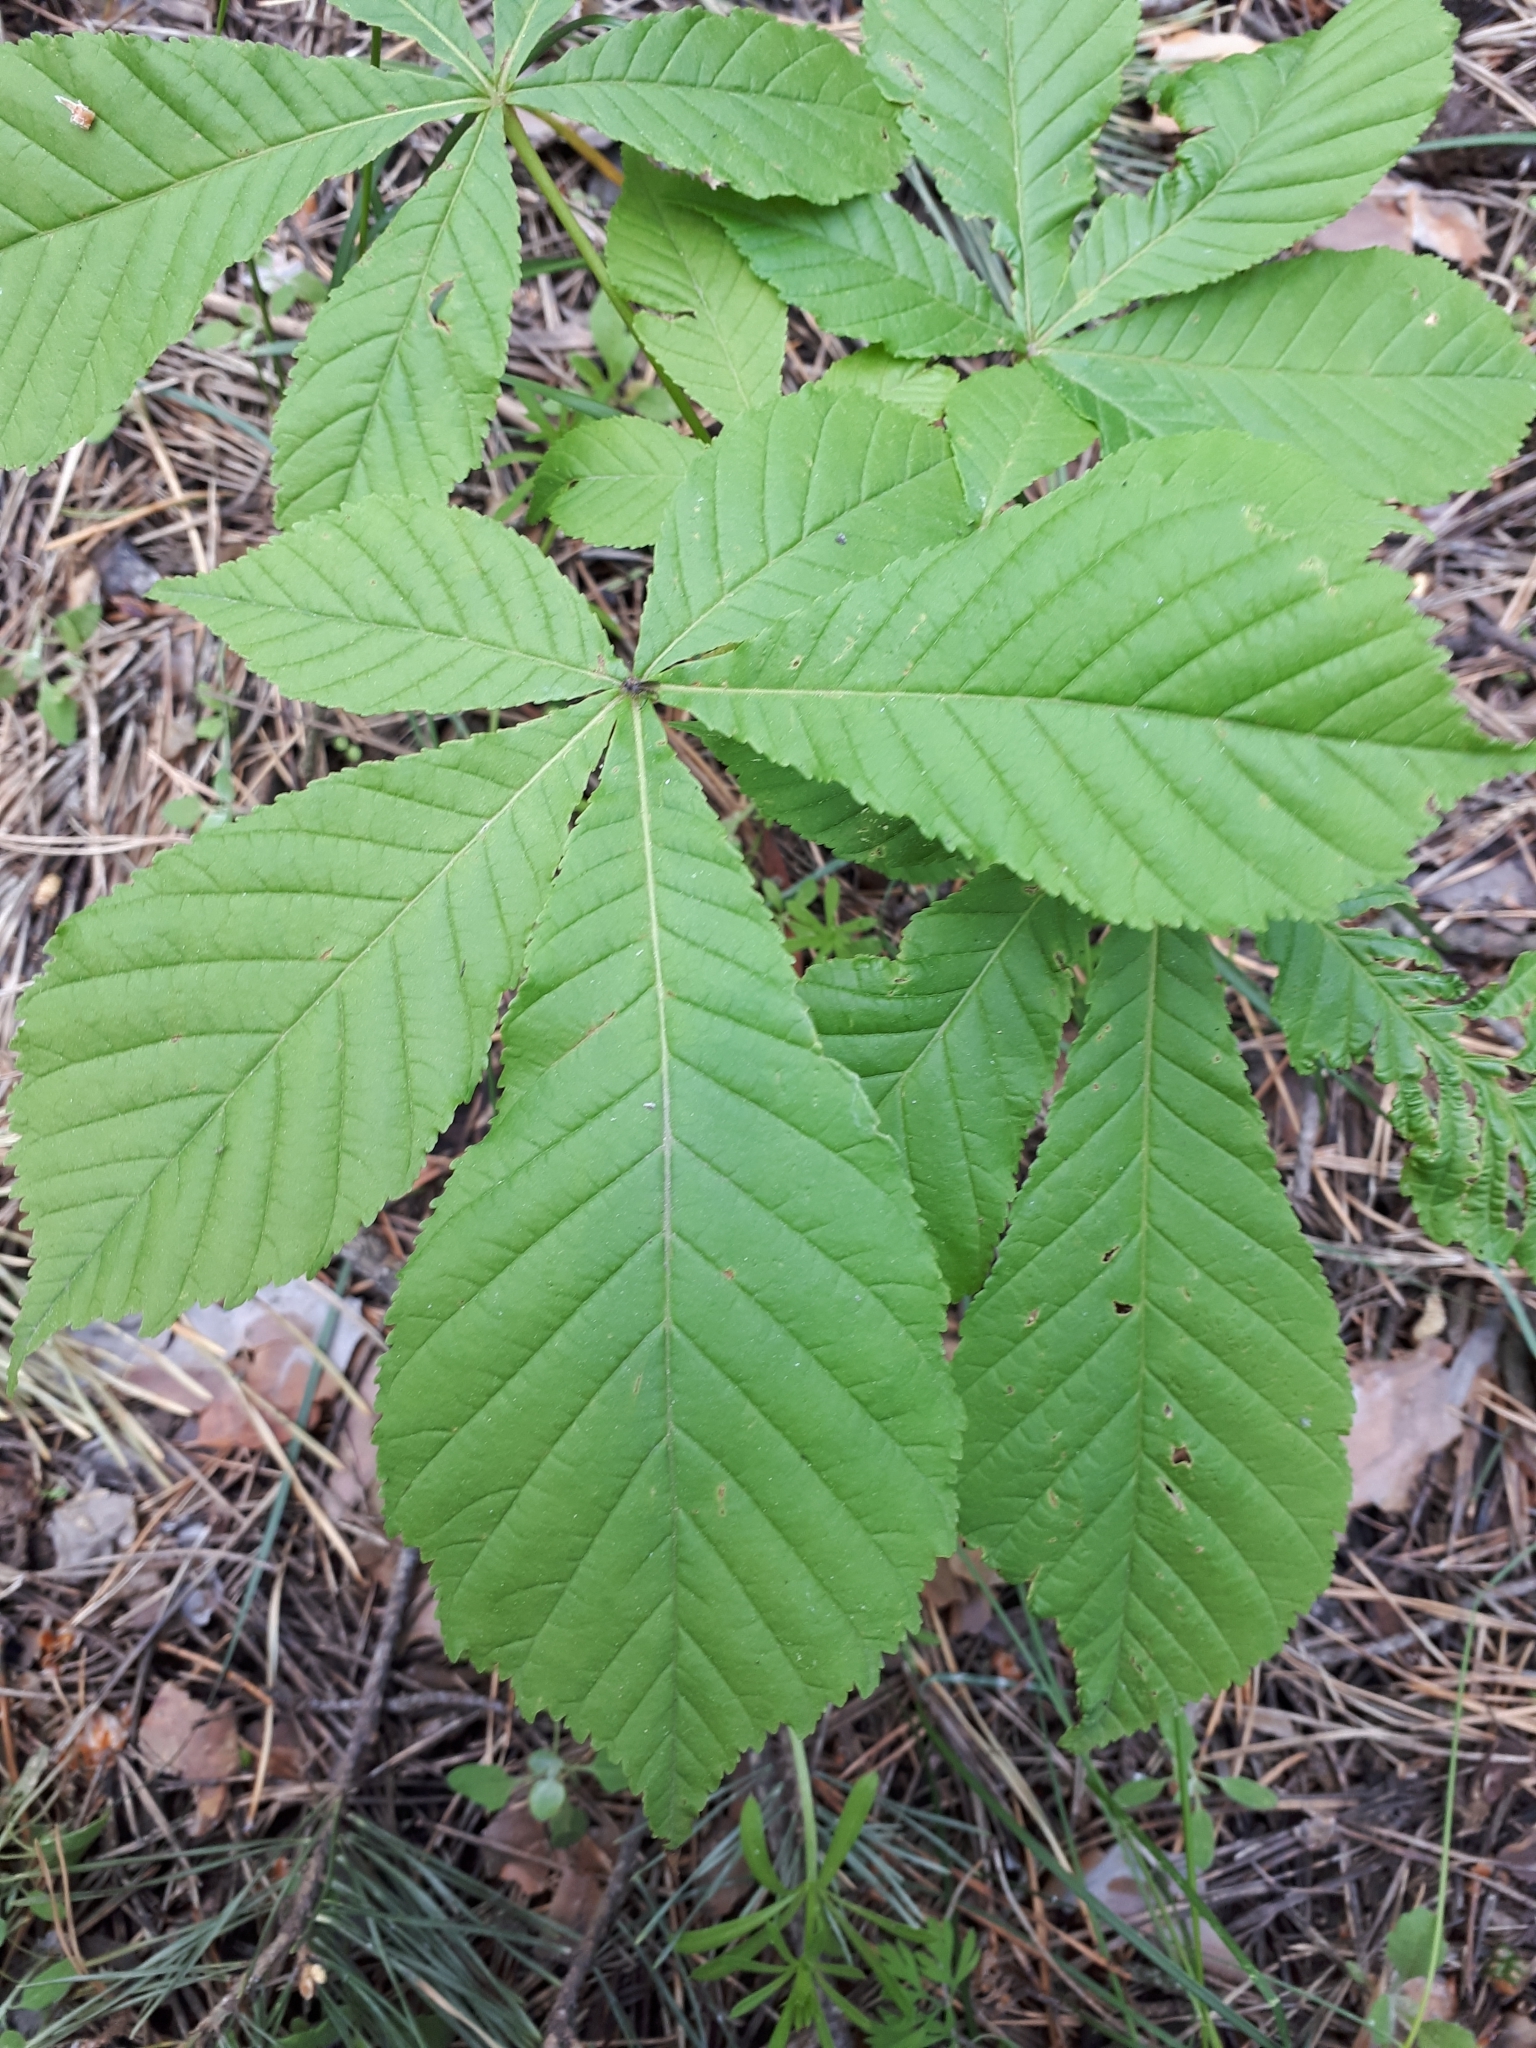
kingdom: Plantae
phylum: Tracheophyta
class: Magnoliopsida
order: Sapindales
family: Sapindaceae
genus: Aesculus
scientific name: Aesculus hippocastanum
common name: Horse-chestnut
